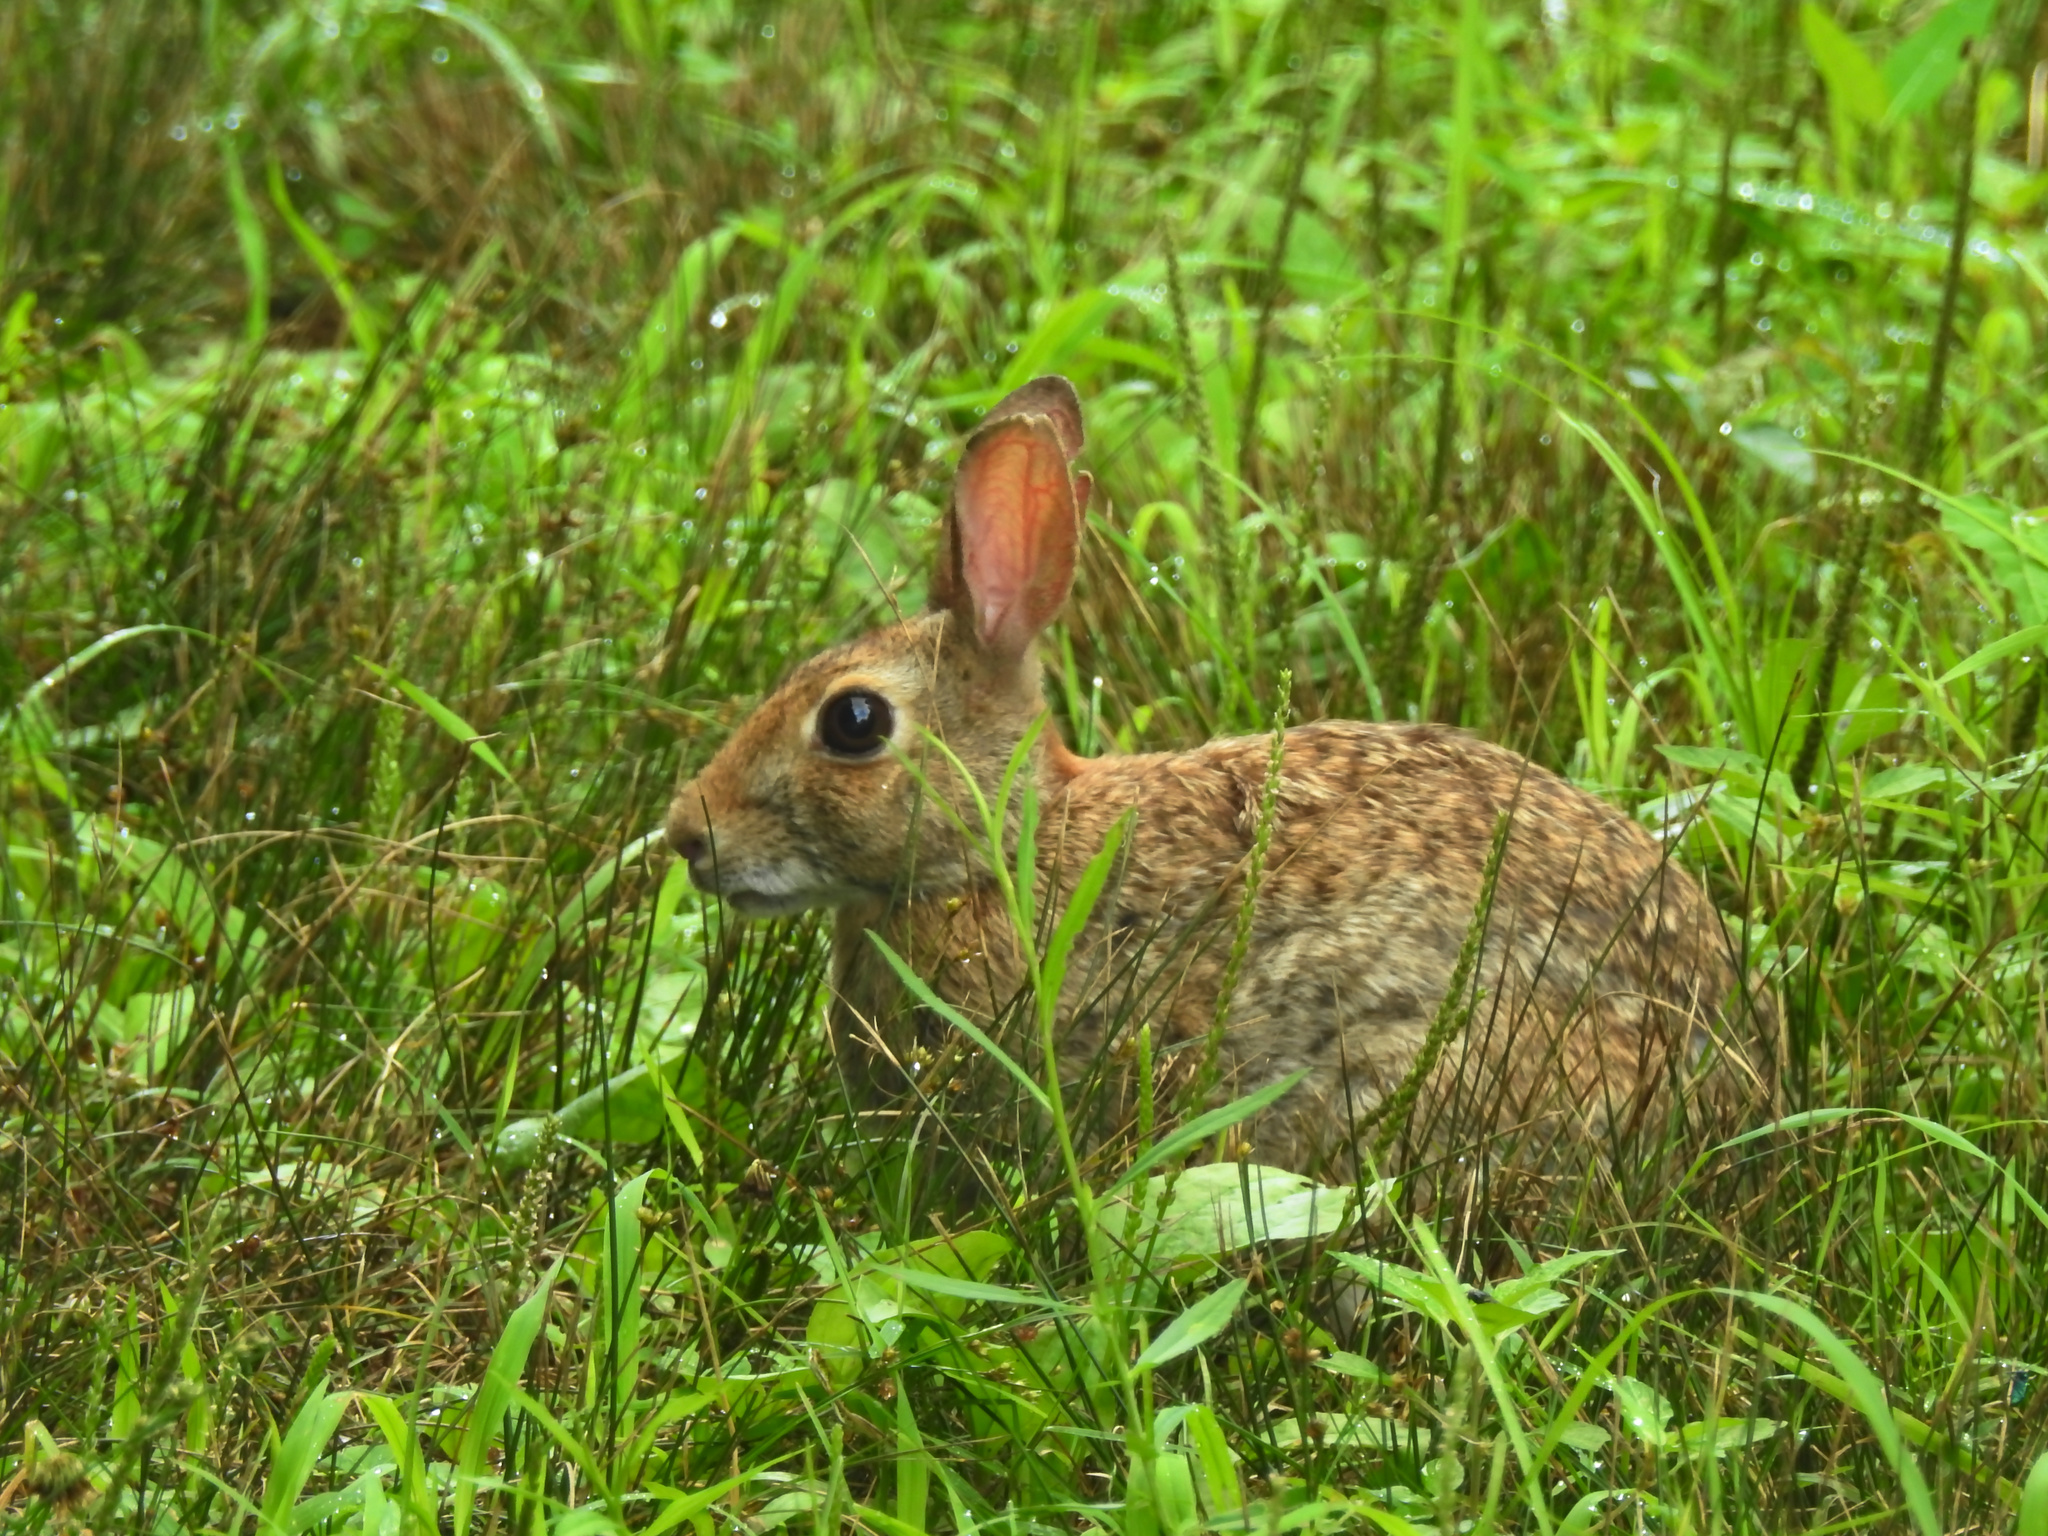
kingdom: Animalia
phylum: Chordata
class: Mammalia
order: Lagomorpha
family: Leporidae
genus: Sylvilagus
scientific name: Sylvilagus floridanus
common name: Eastern cottontail
